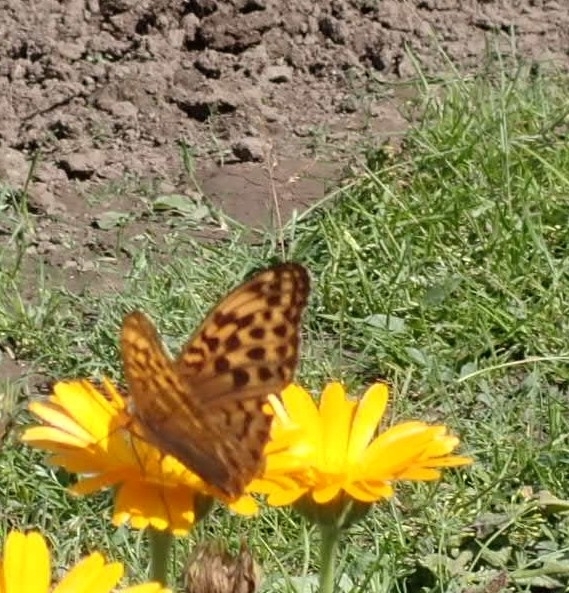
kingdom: Animalia
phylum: Arthropoda
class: Insecta
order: Lepidoptera
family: Nymphalidae
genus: Argynnis
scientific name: Argynnis paphia
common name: Silver-washed fritillary
